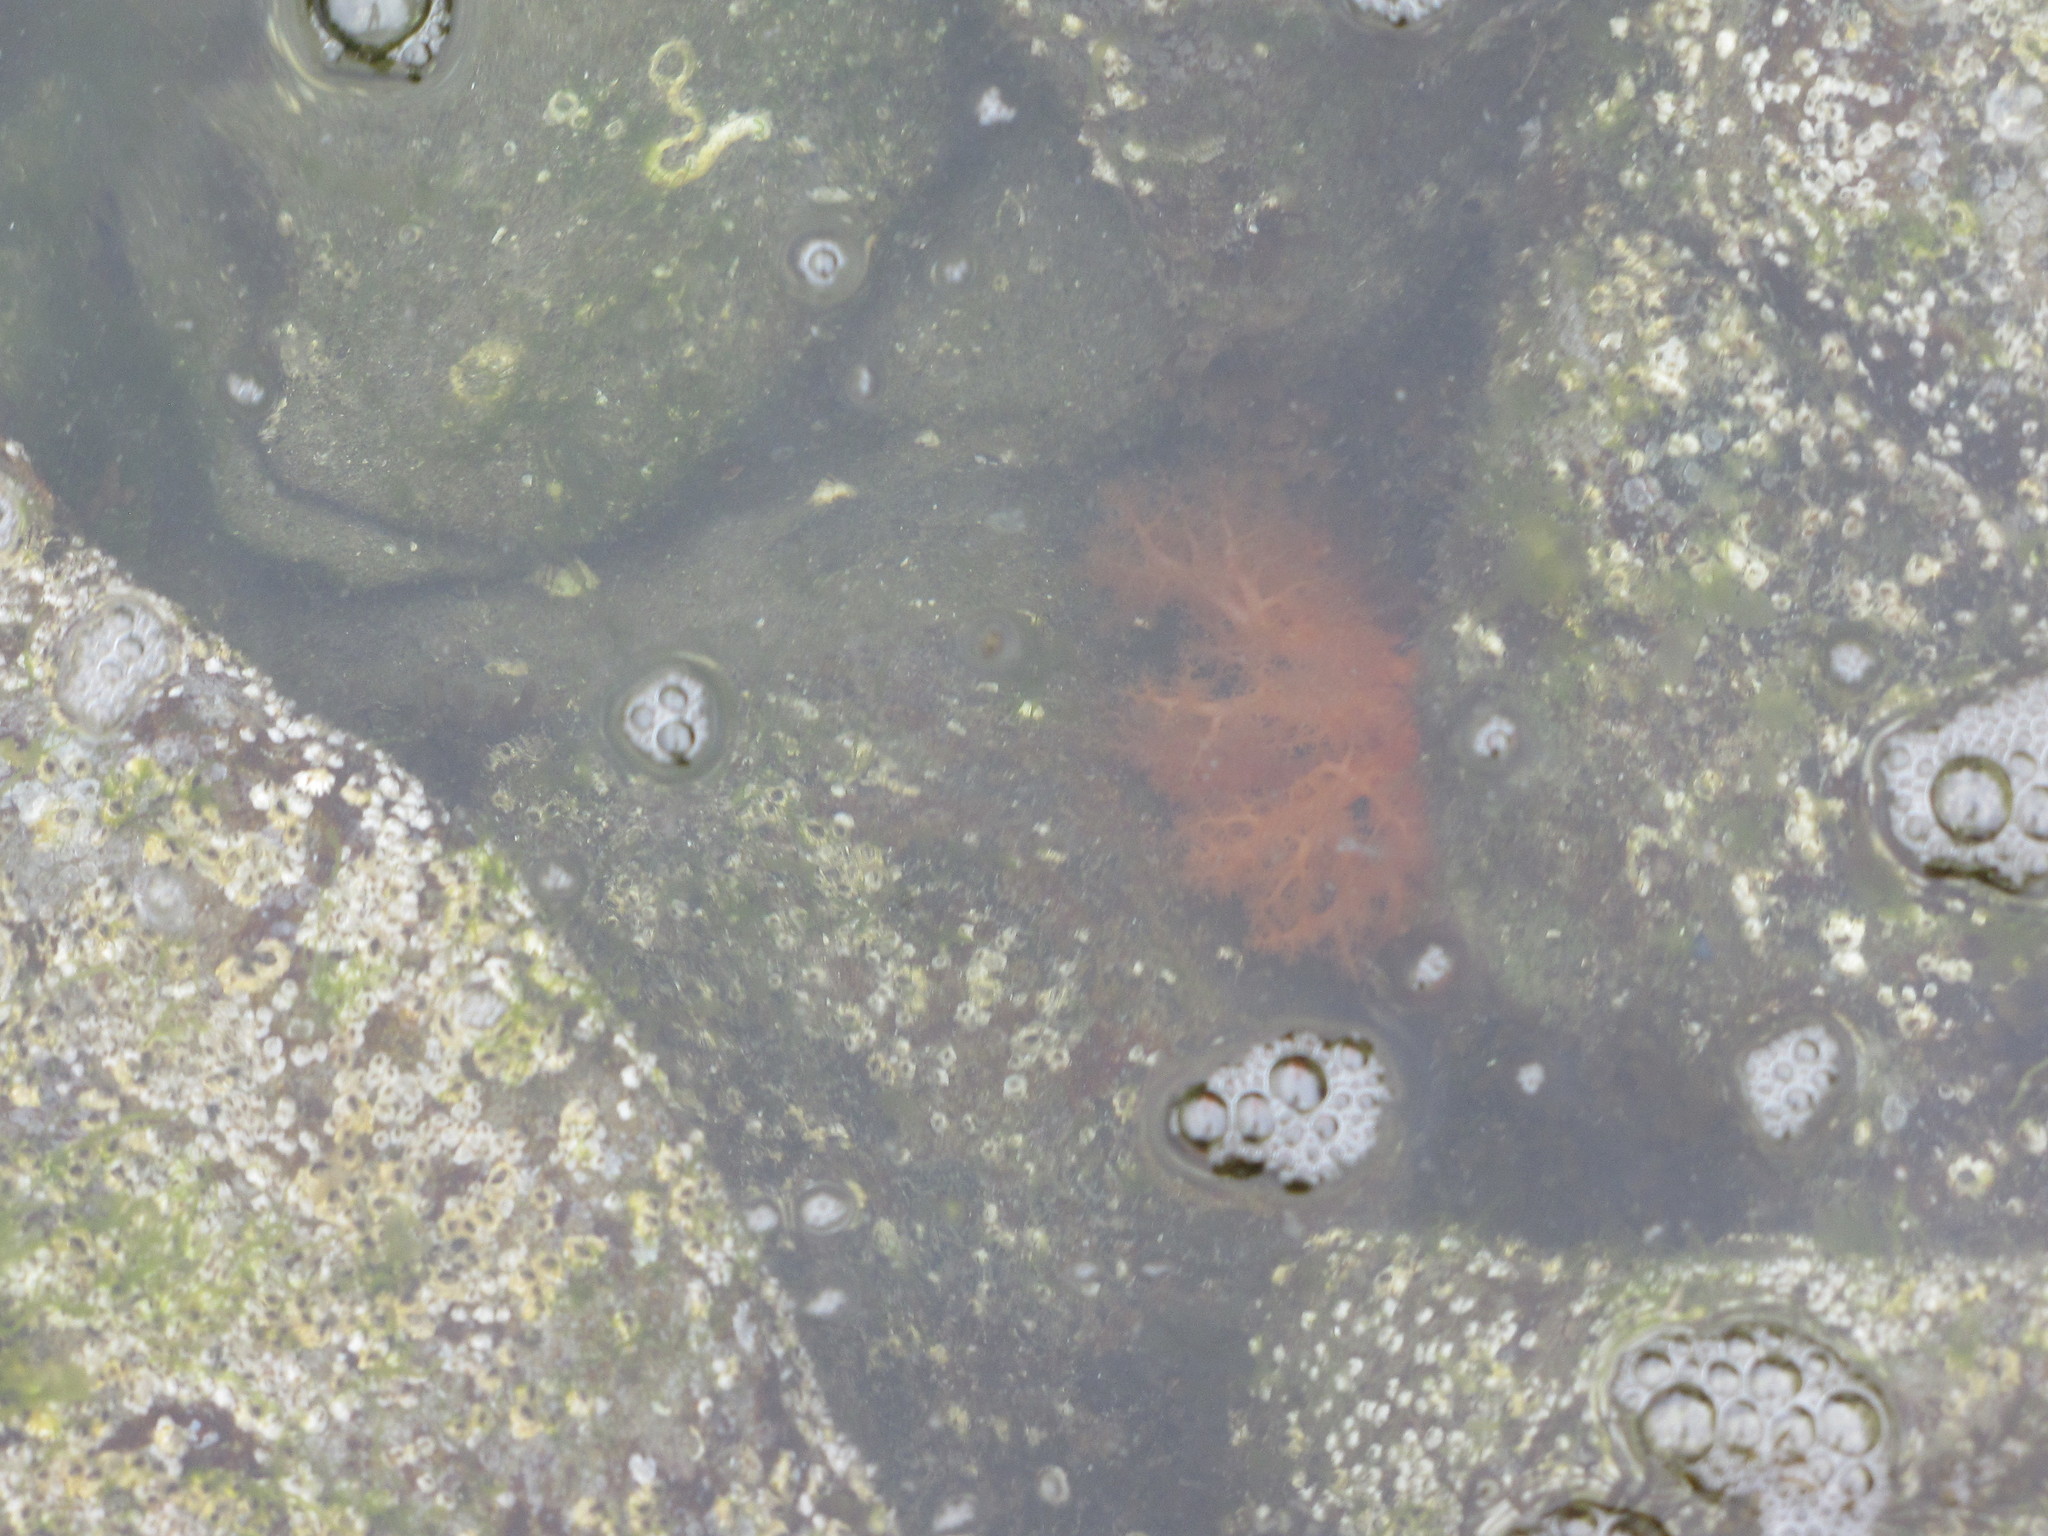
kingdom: Animalia
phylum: Echinodermata
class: Holothuroidea
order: Dendrochirotida
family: Cucumariidae
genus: Cucumaria
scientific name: Cucumaria miniata
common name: Orange sea cucumber
